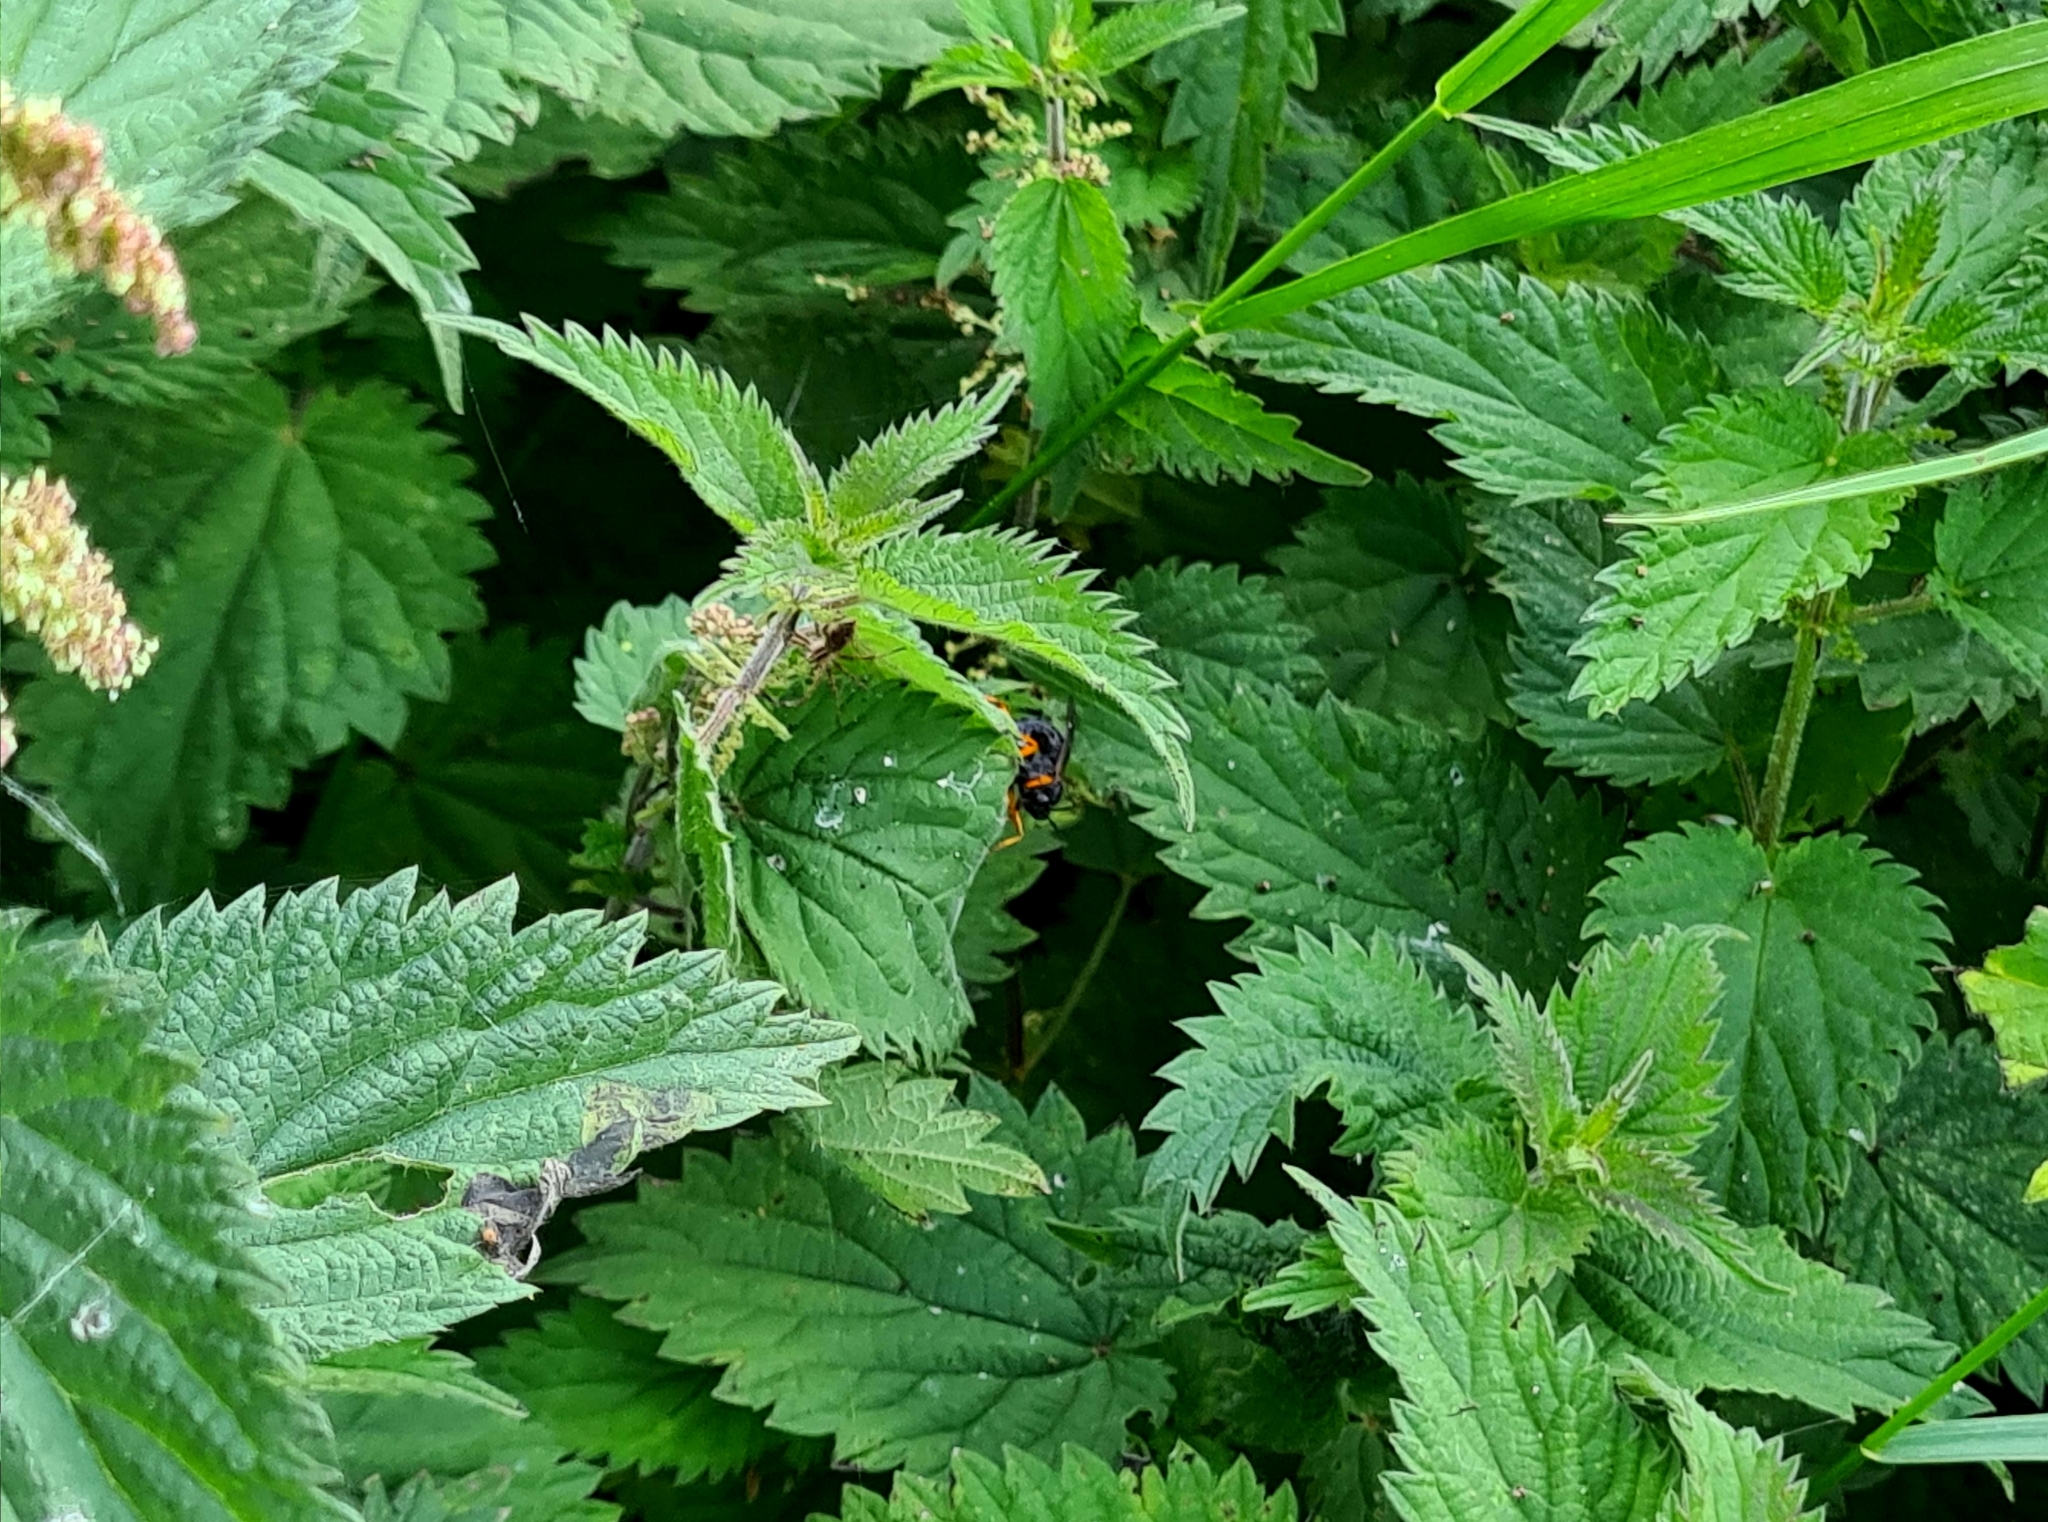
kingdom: Animalia
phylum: Arthropoda
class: Insecta
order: Hymenoptera
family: Ichneumonidae
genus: Pimpla
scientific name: Pimpla rufipes
